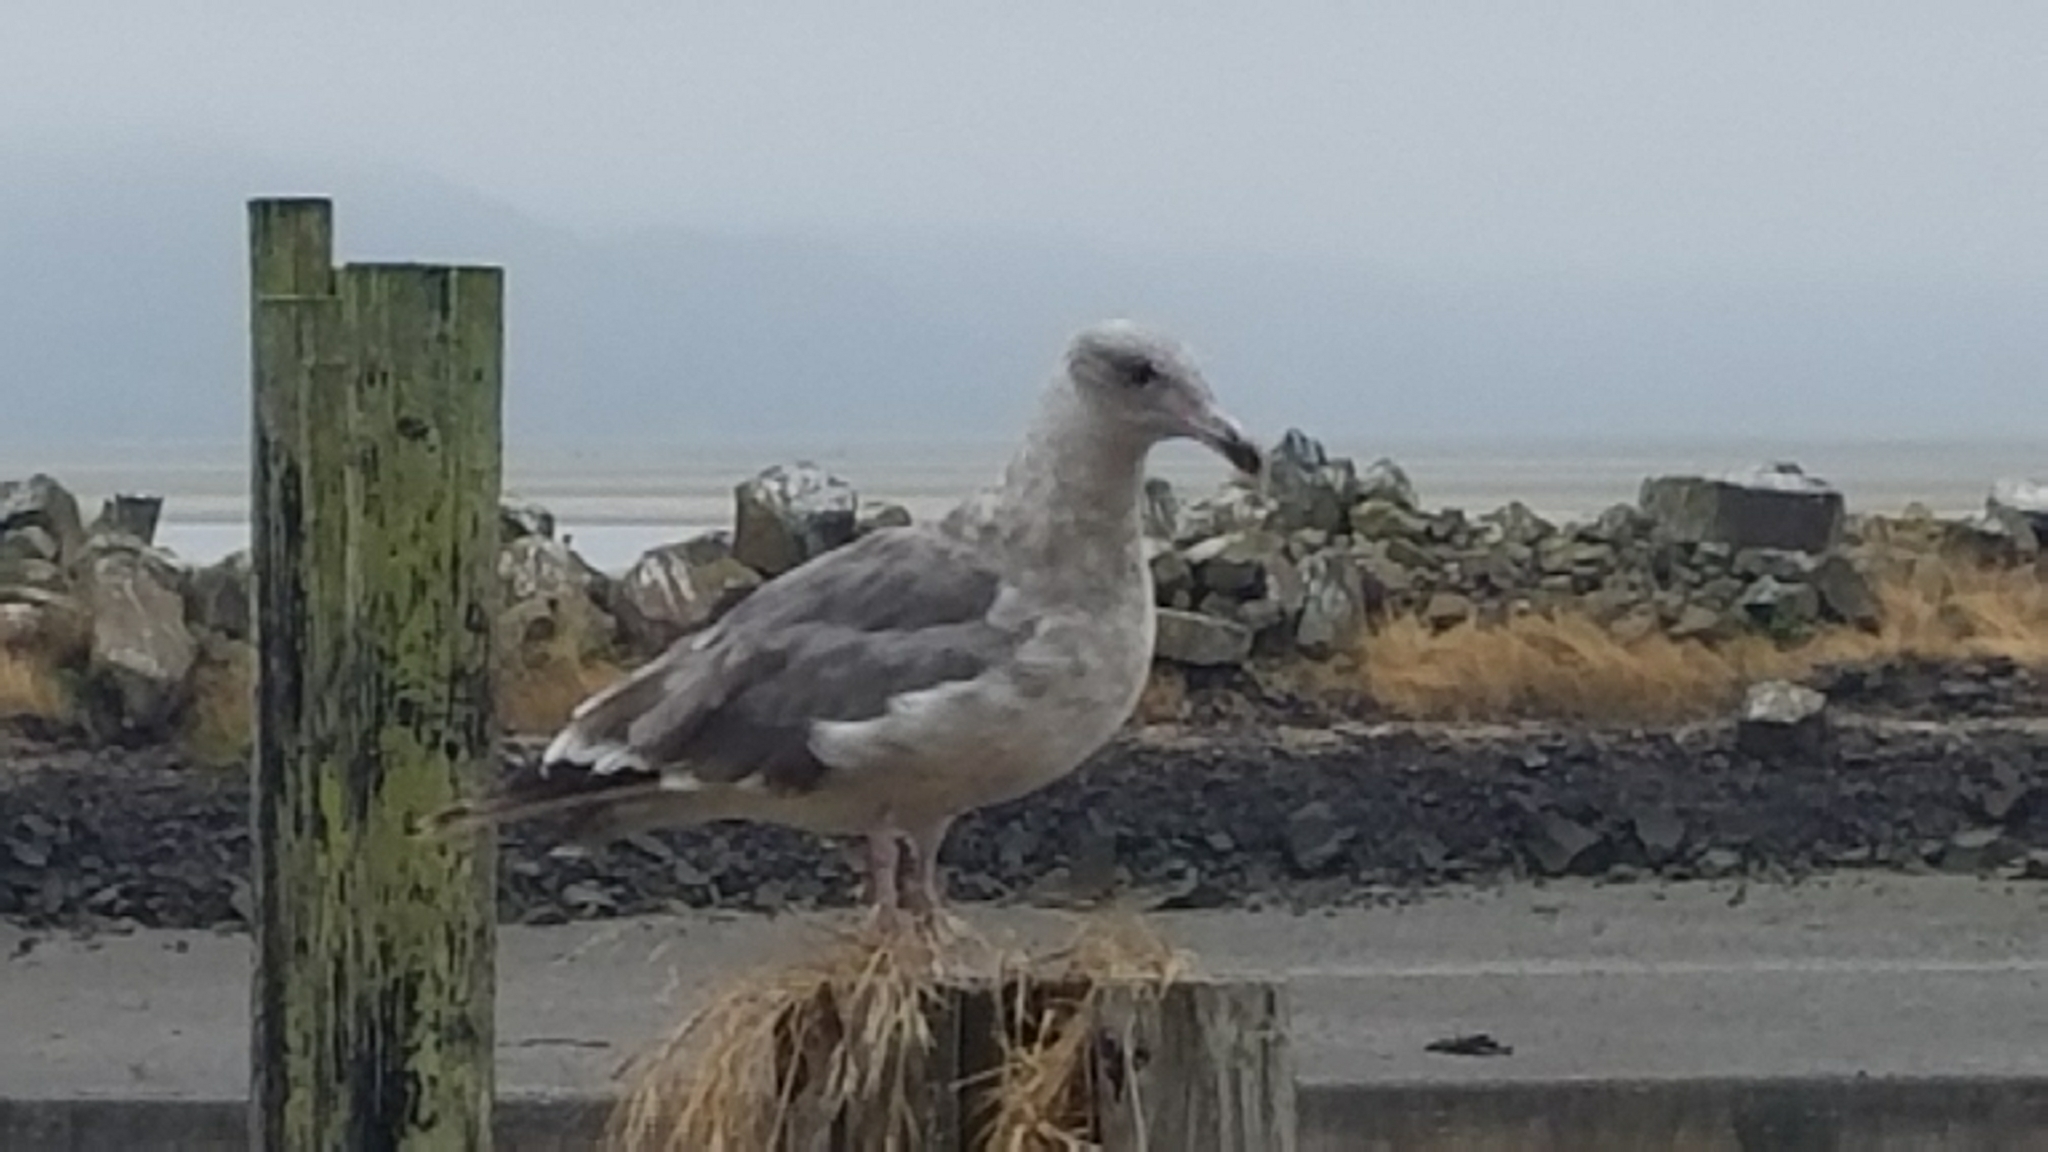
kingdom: Animalia
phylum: Chordata
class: Aves
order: Charadriiformes
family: Laridae
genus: Larus
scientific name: Larus
